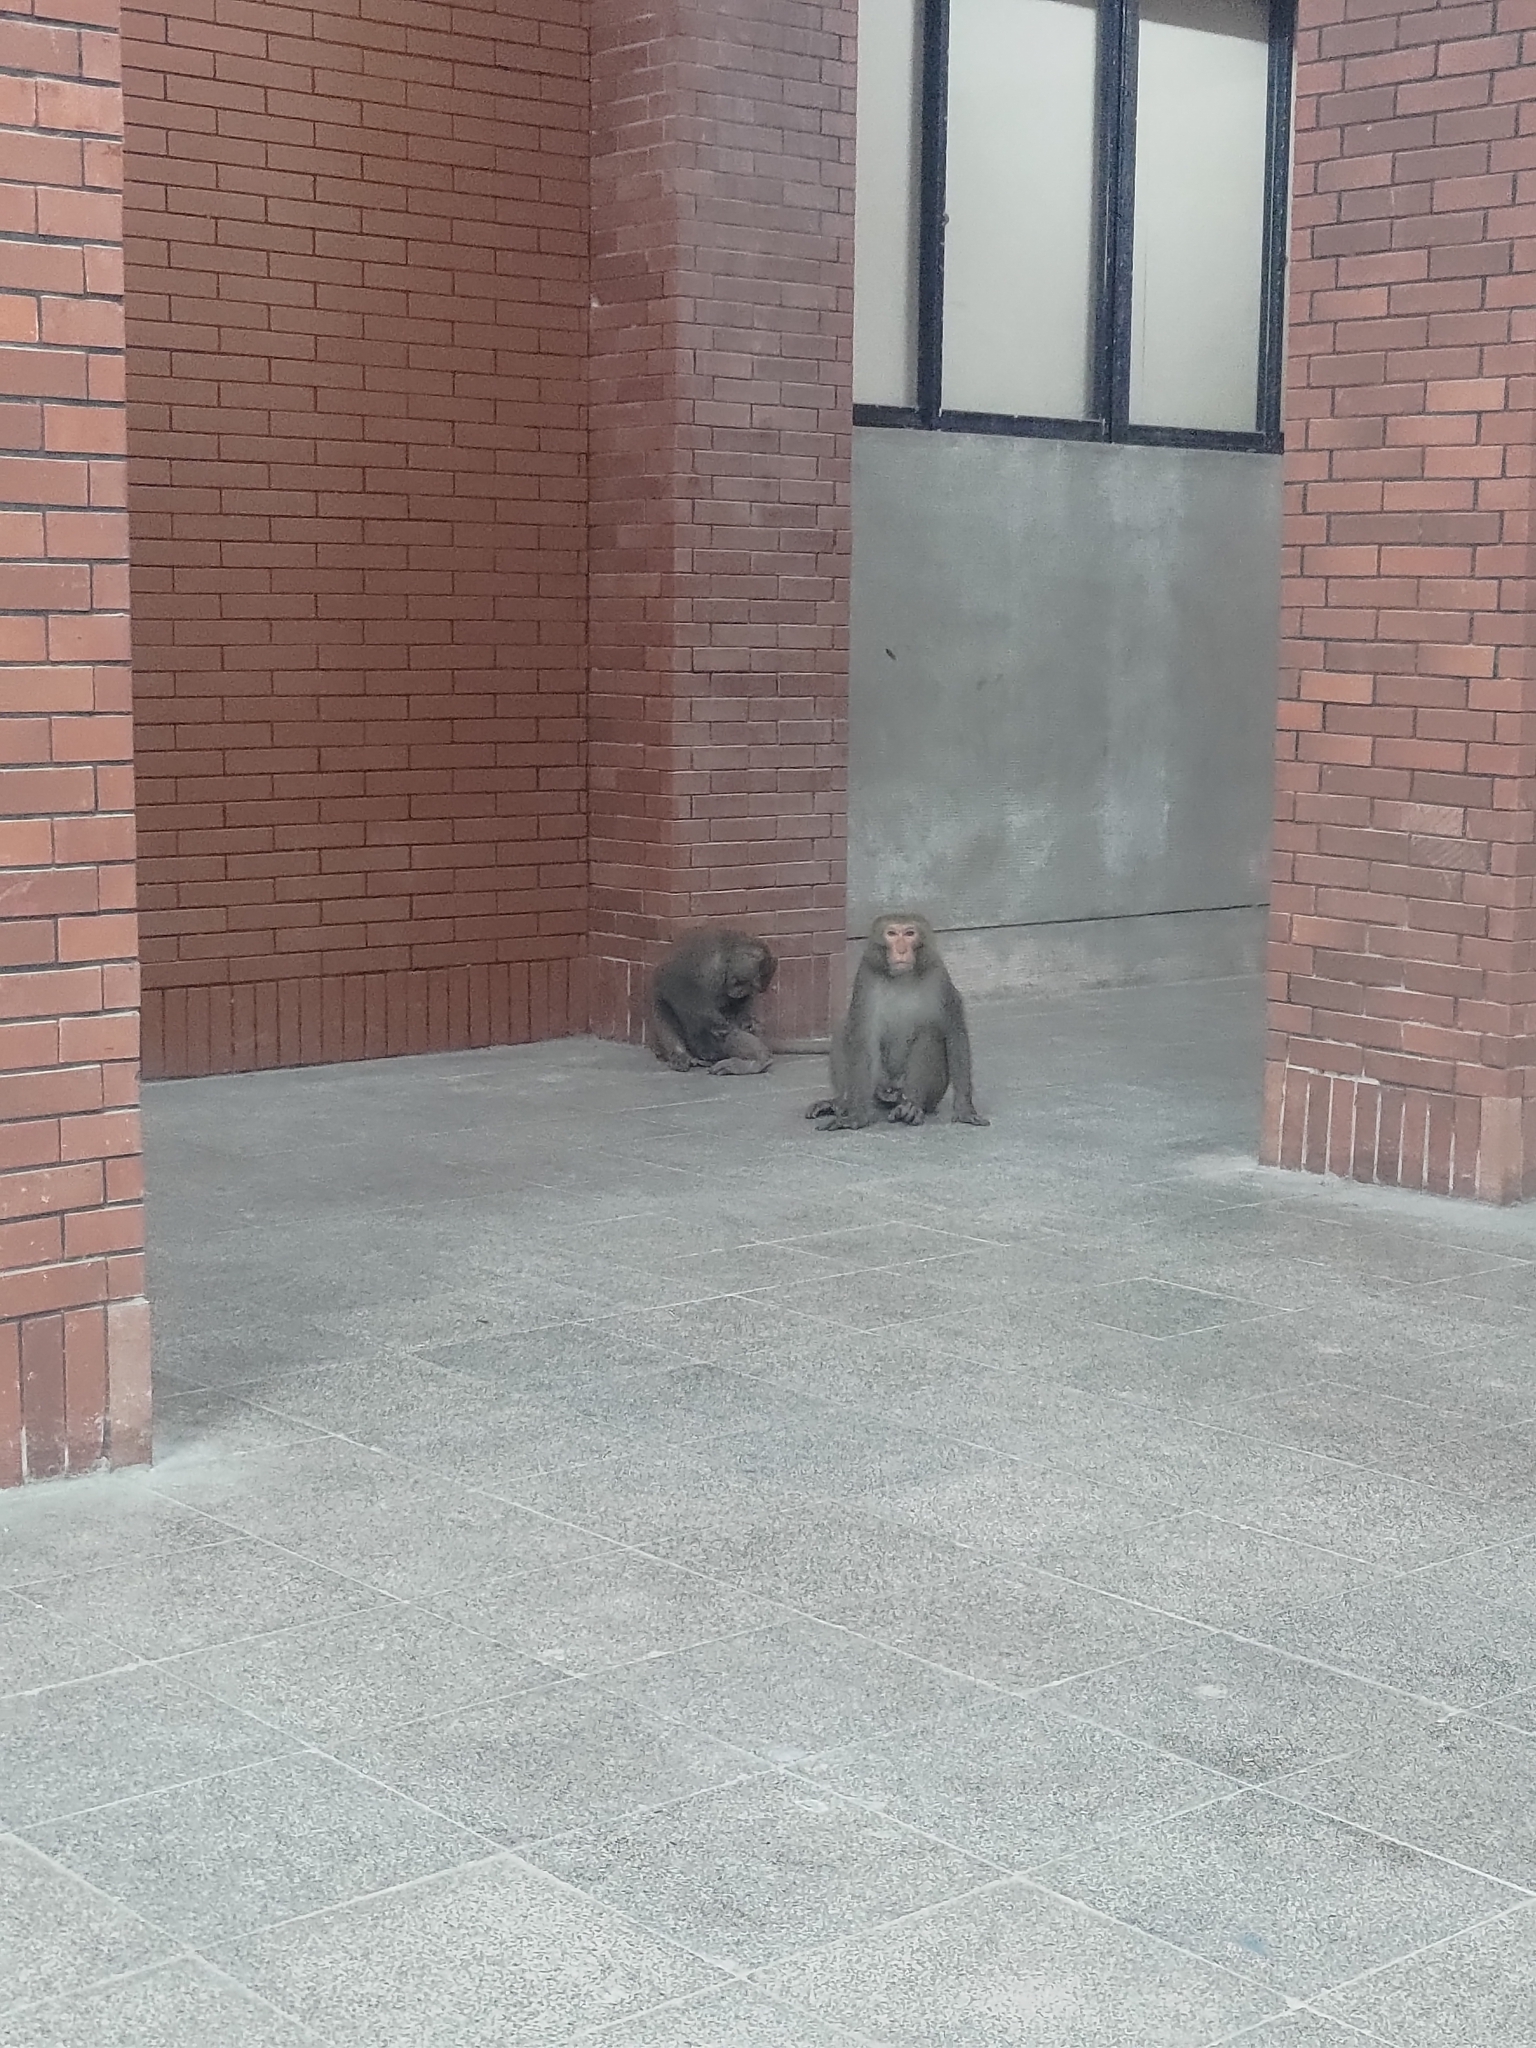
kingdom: Animalia
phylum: Chordata
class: Mammalia
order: Primates
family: Cercopithecidae
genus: Macaca
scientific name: Macaca cyclopis
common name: Formosan rock macaque
